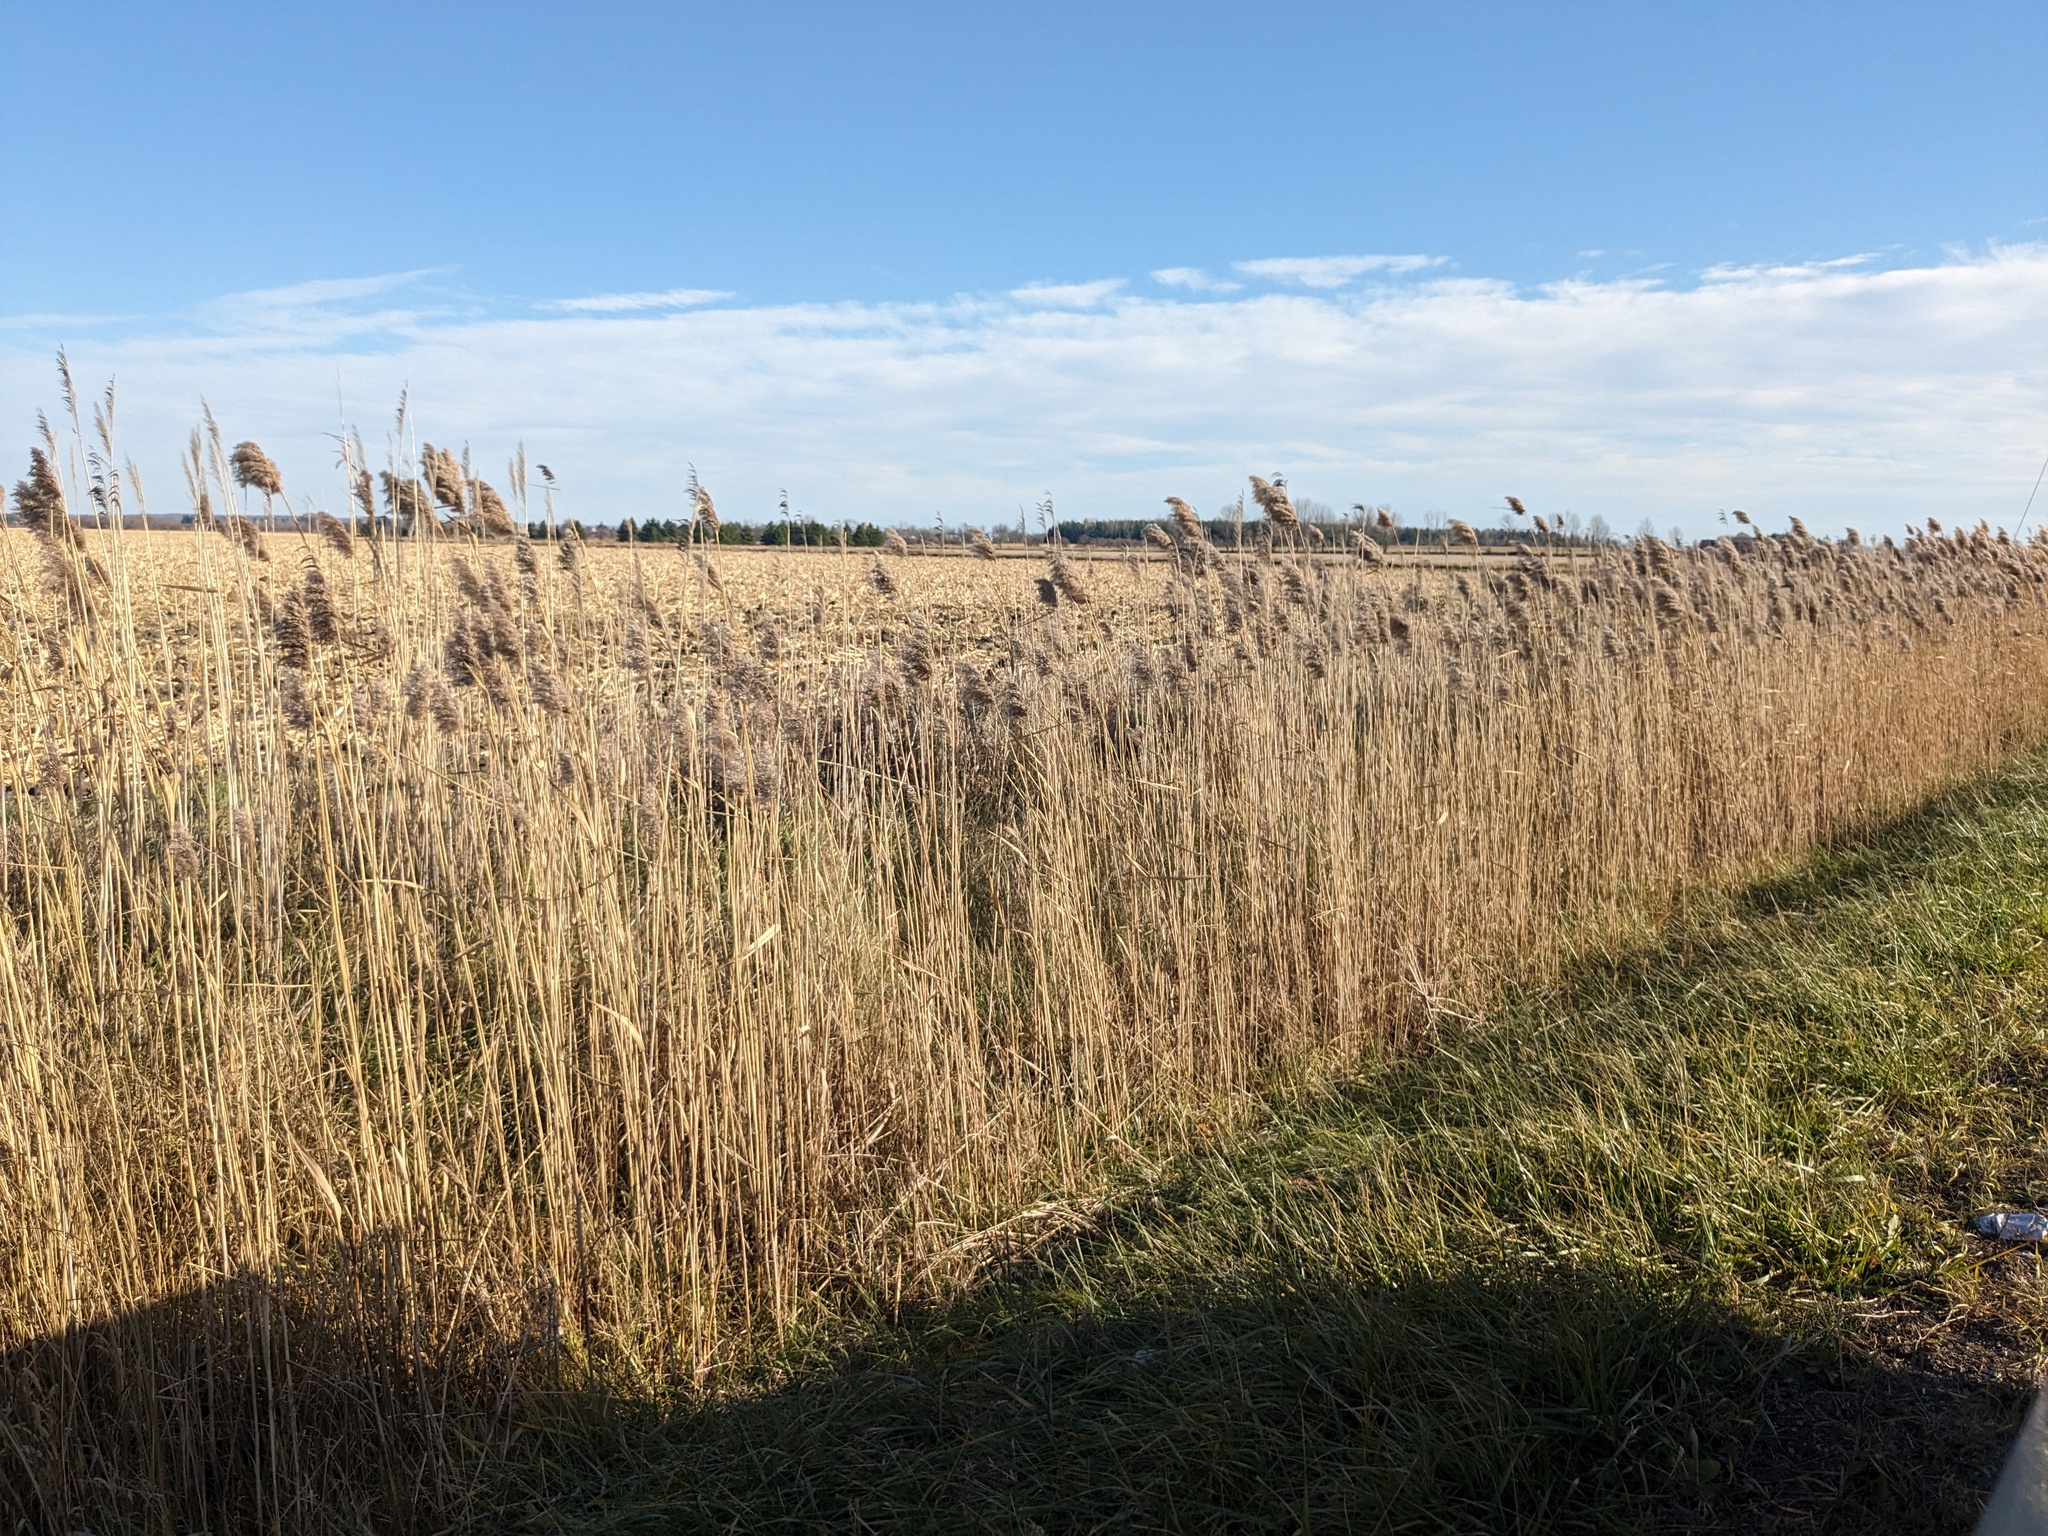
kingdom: Plantae
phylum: Tracheophyta
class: Liliopsida
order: Poales
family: Poaceae
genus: Phragmites
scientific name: Phragmites australis
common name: Common reed
